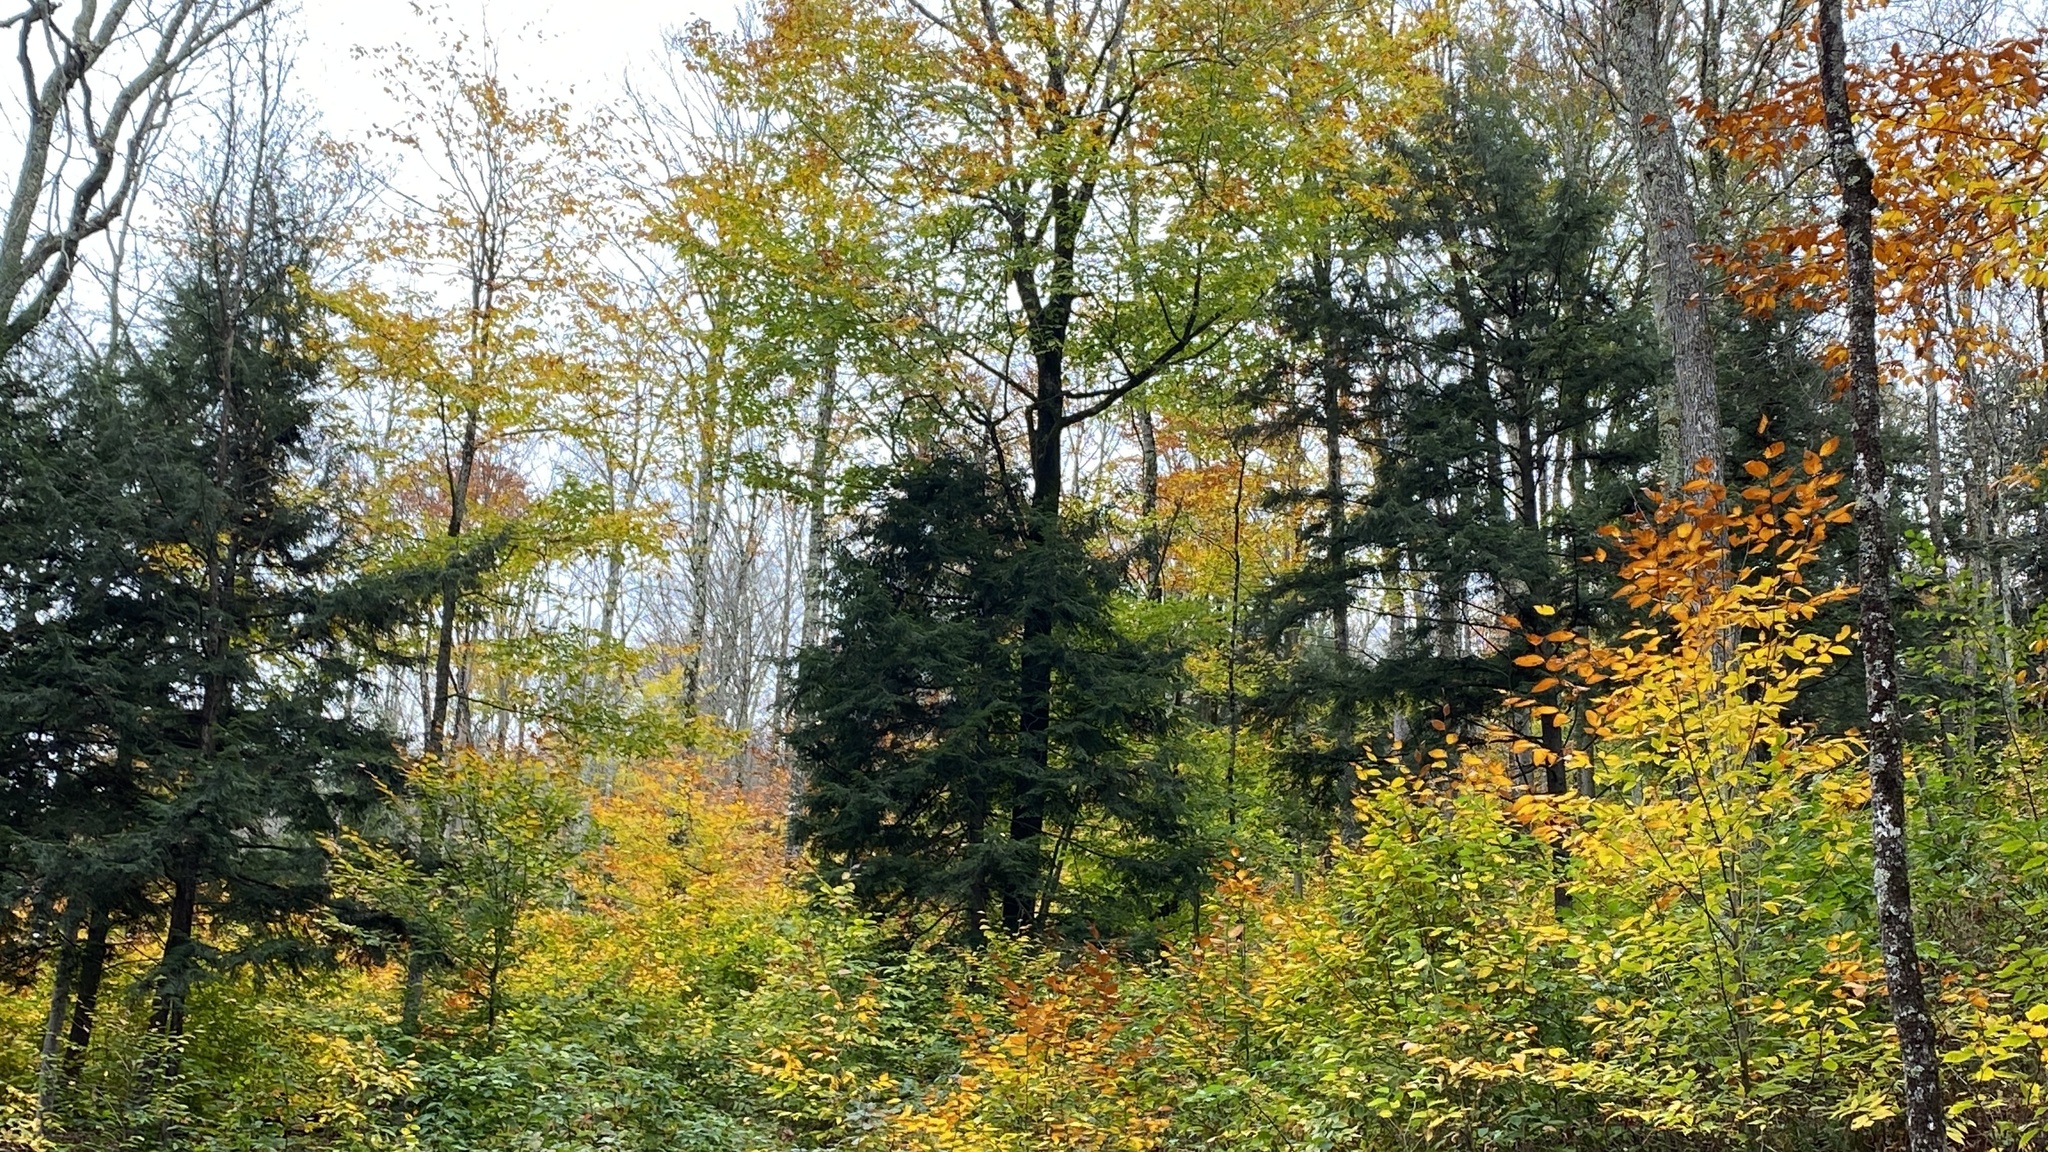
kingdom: Plantae
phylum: Tracheophyta
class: Pinopsida
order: Pinales
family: Pinaceae
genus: Tsuga
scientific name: Tsuga canadensis
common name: Eastern hemlock
